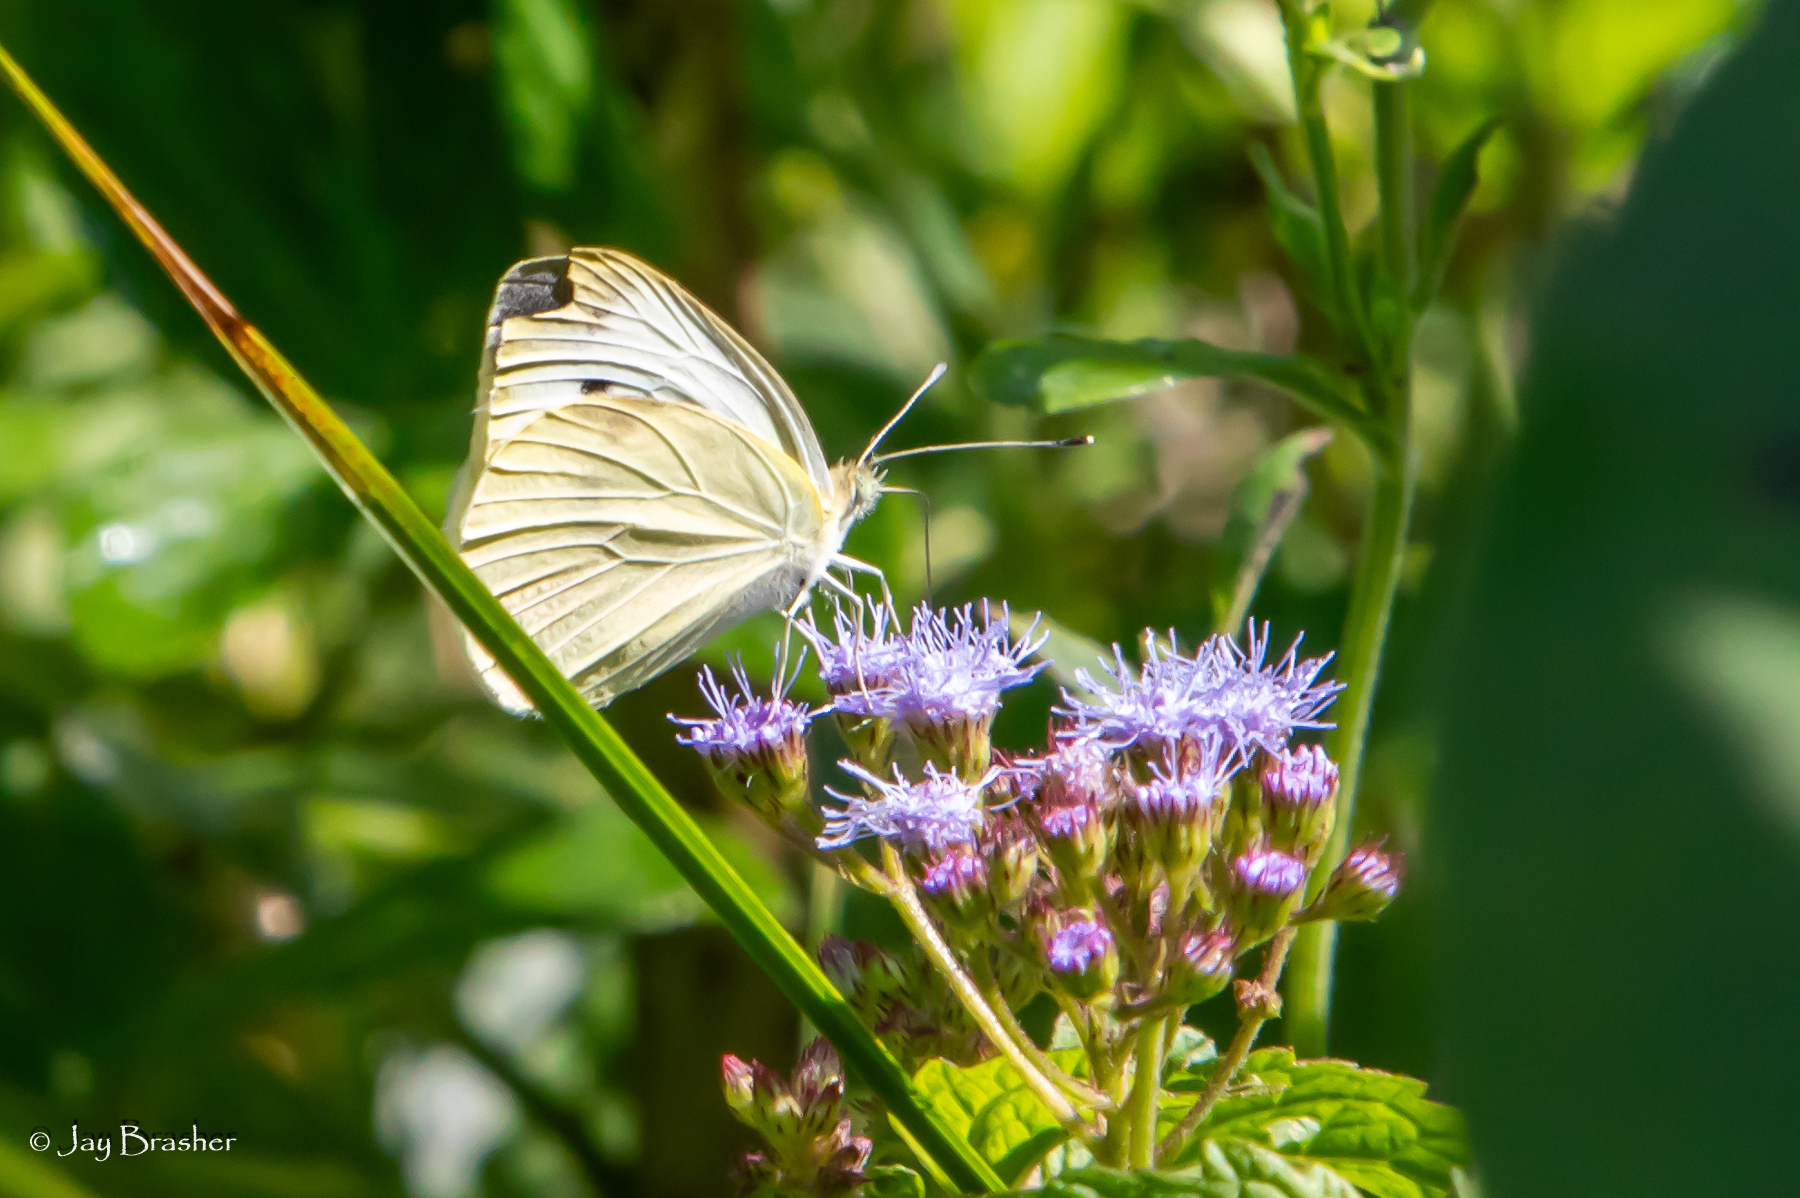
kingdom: Plantae
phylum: Tracheophyta
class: Magnoliopsida
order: Asterales
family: Asteraceae
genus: Conoclinium
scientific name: Conoclinium coelestinum
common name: Blue mistflower
